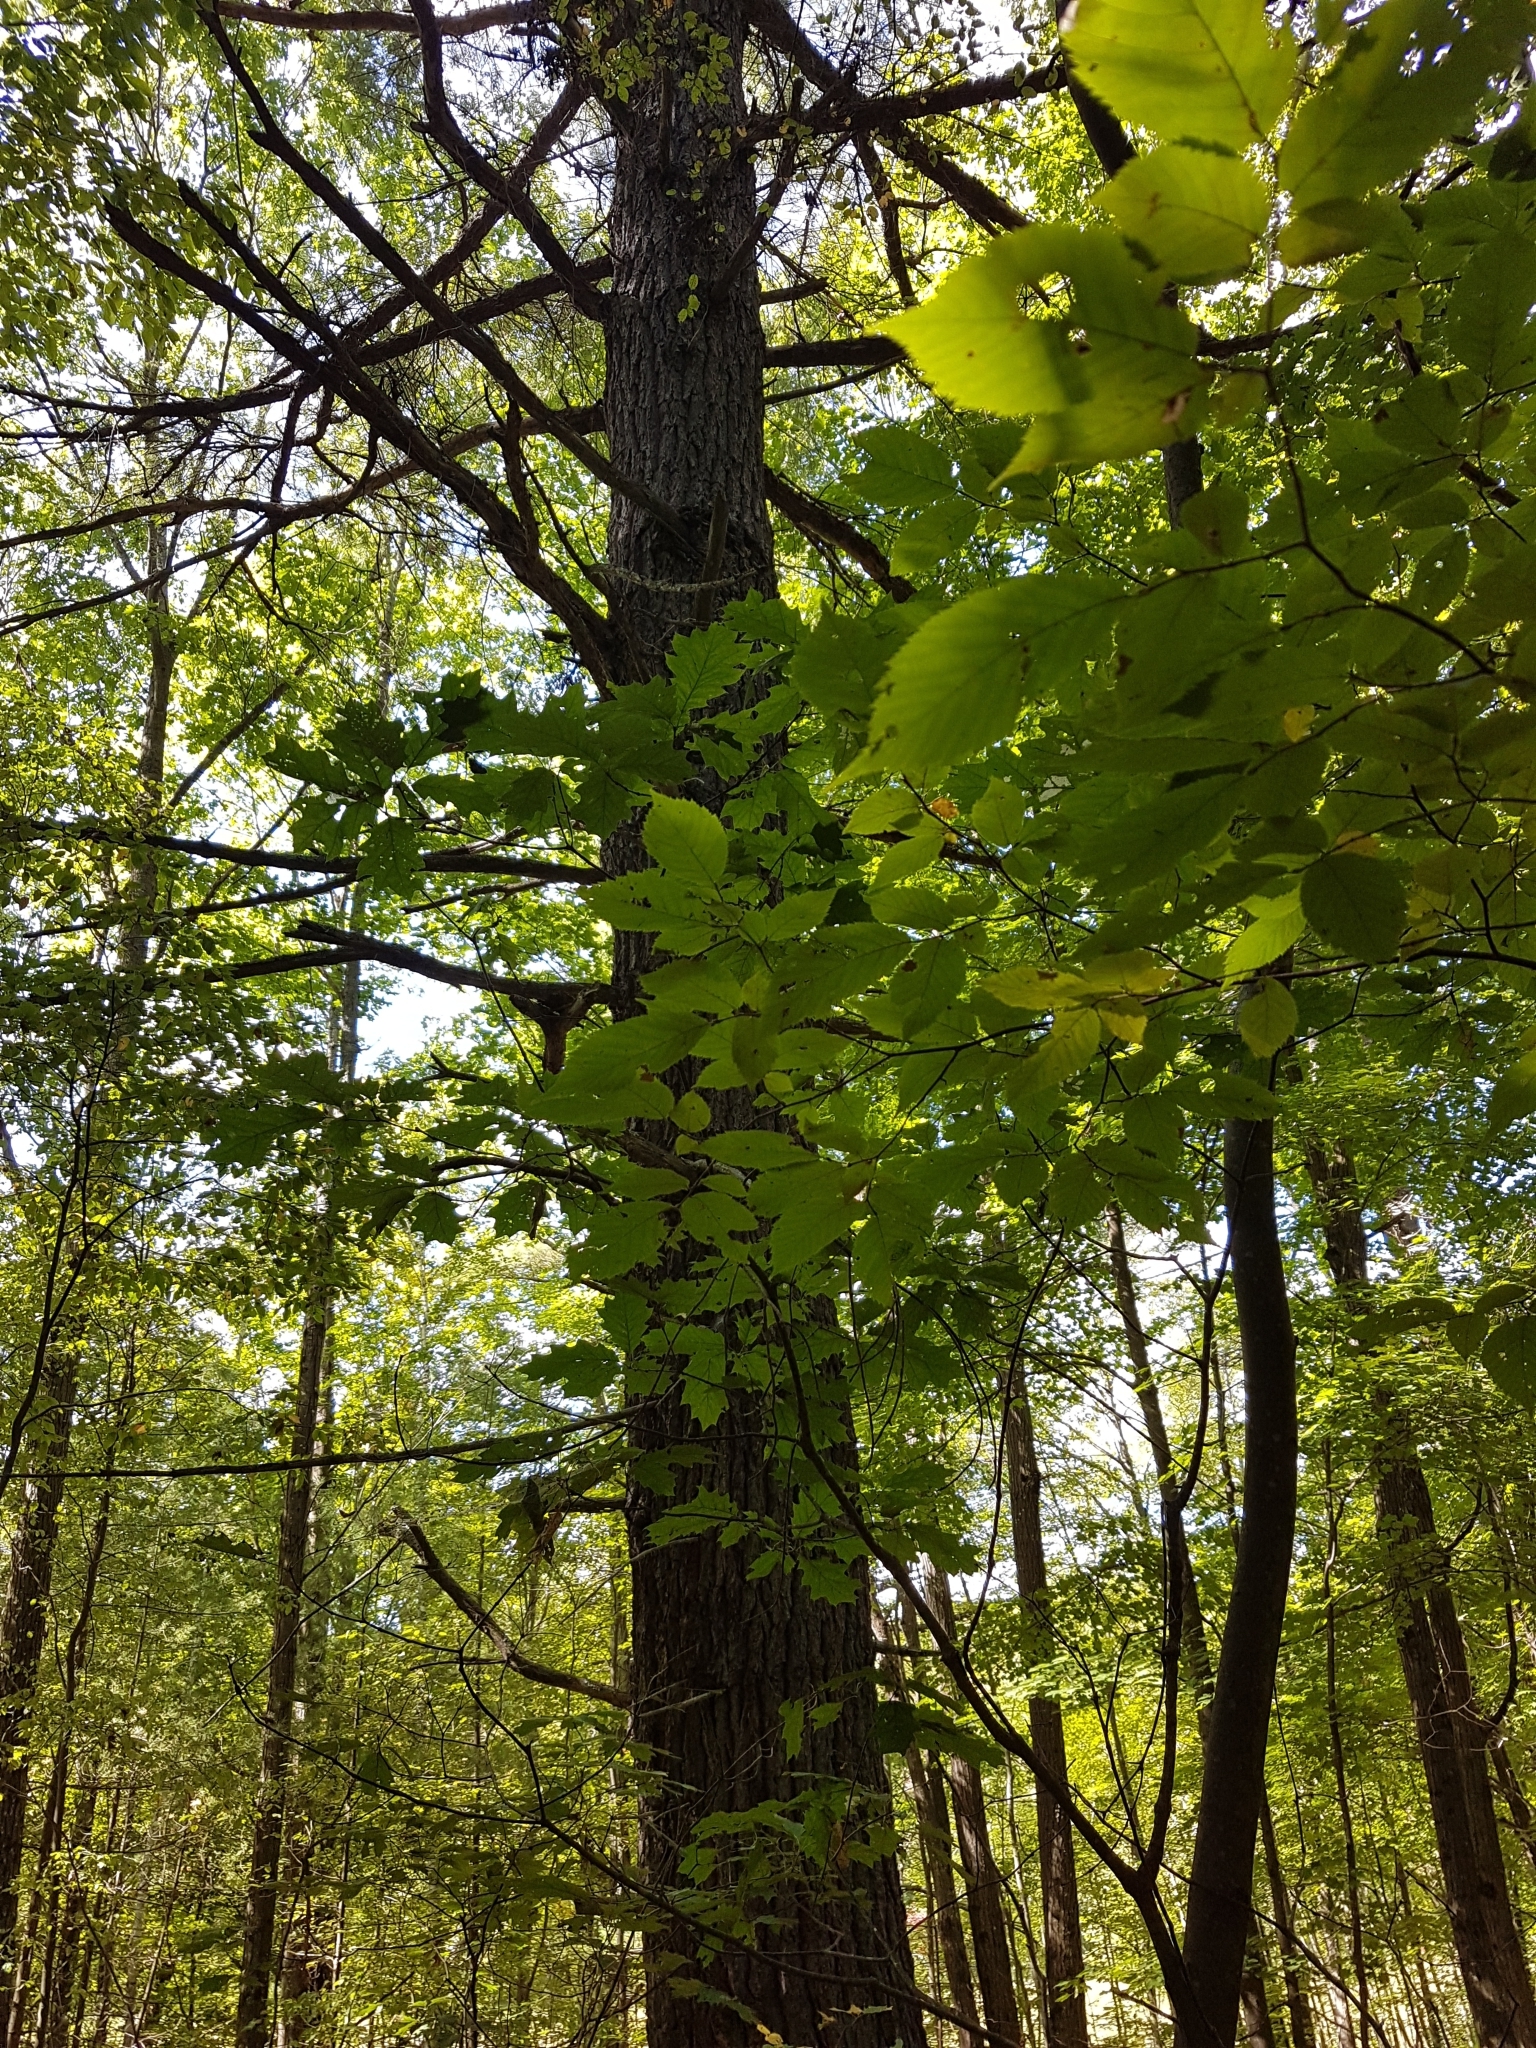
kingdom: Plantae
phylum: Tracheophyta
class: Pinopsida
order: Pinales
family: Pinaceae
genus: Pinus
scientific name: Pinus strobus
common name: Weymouth pine
